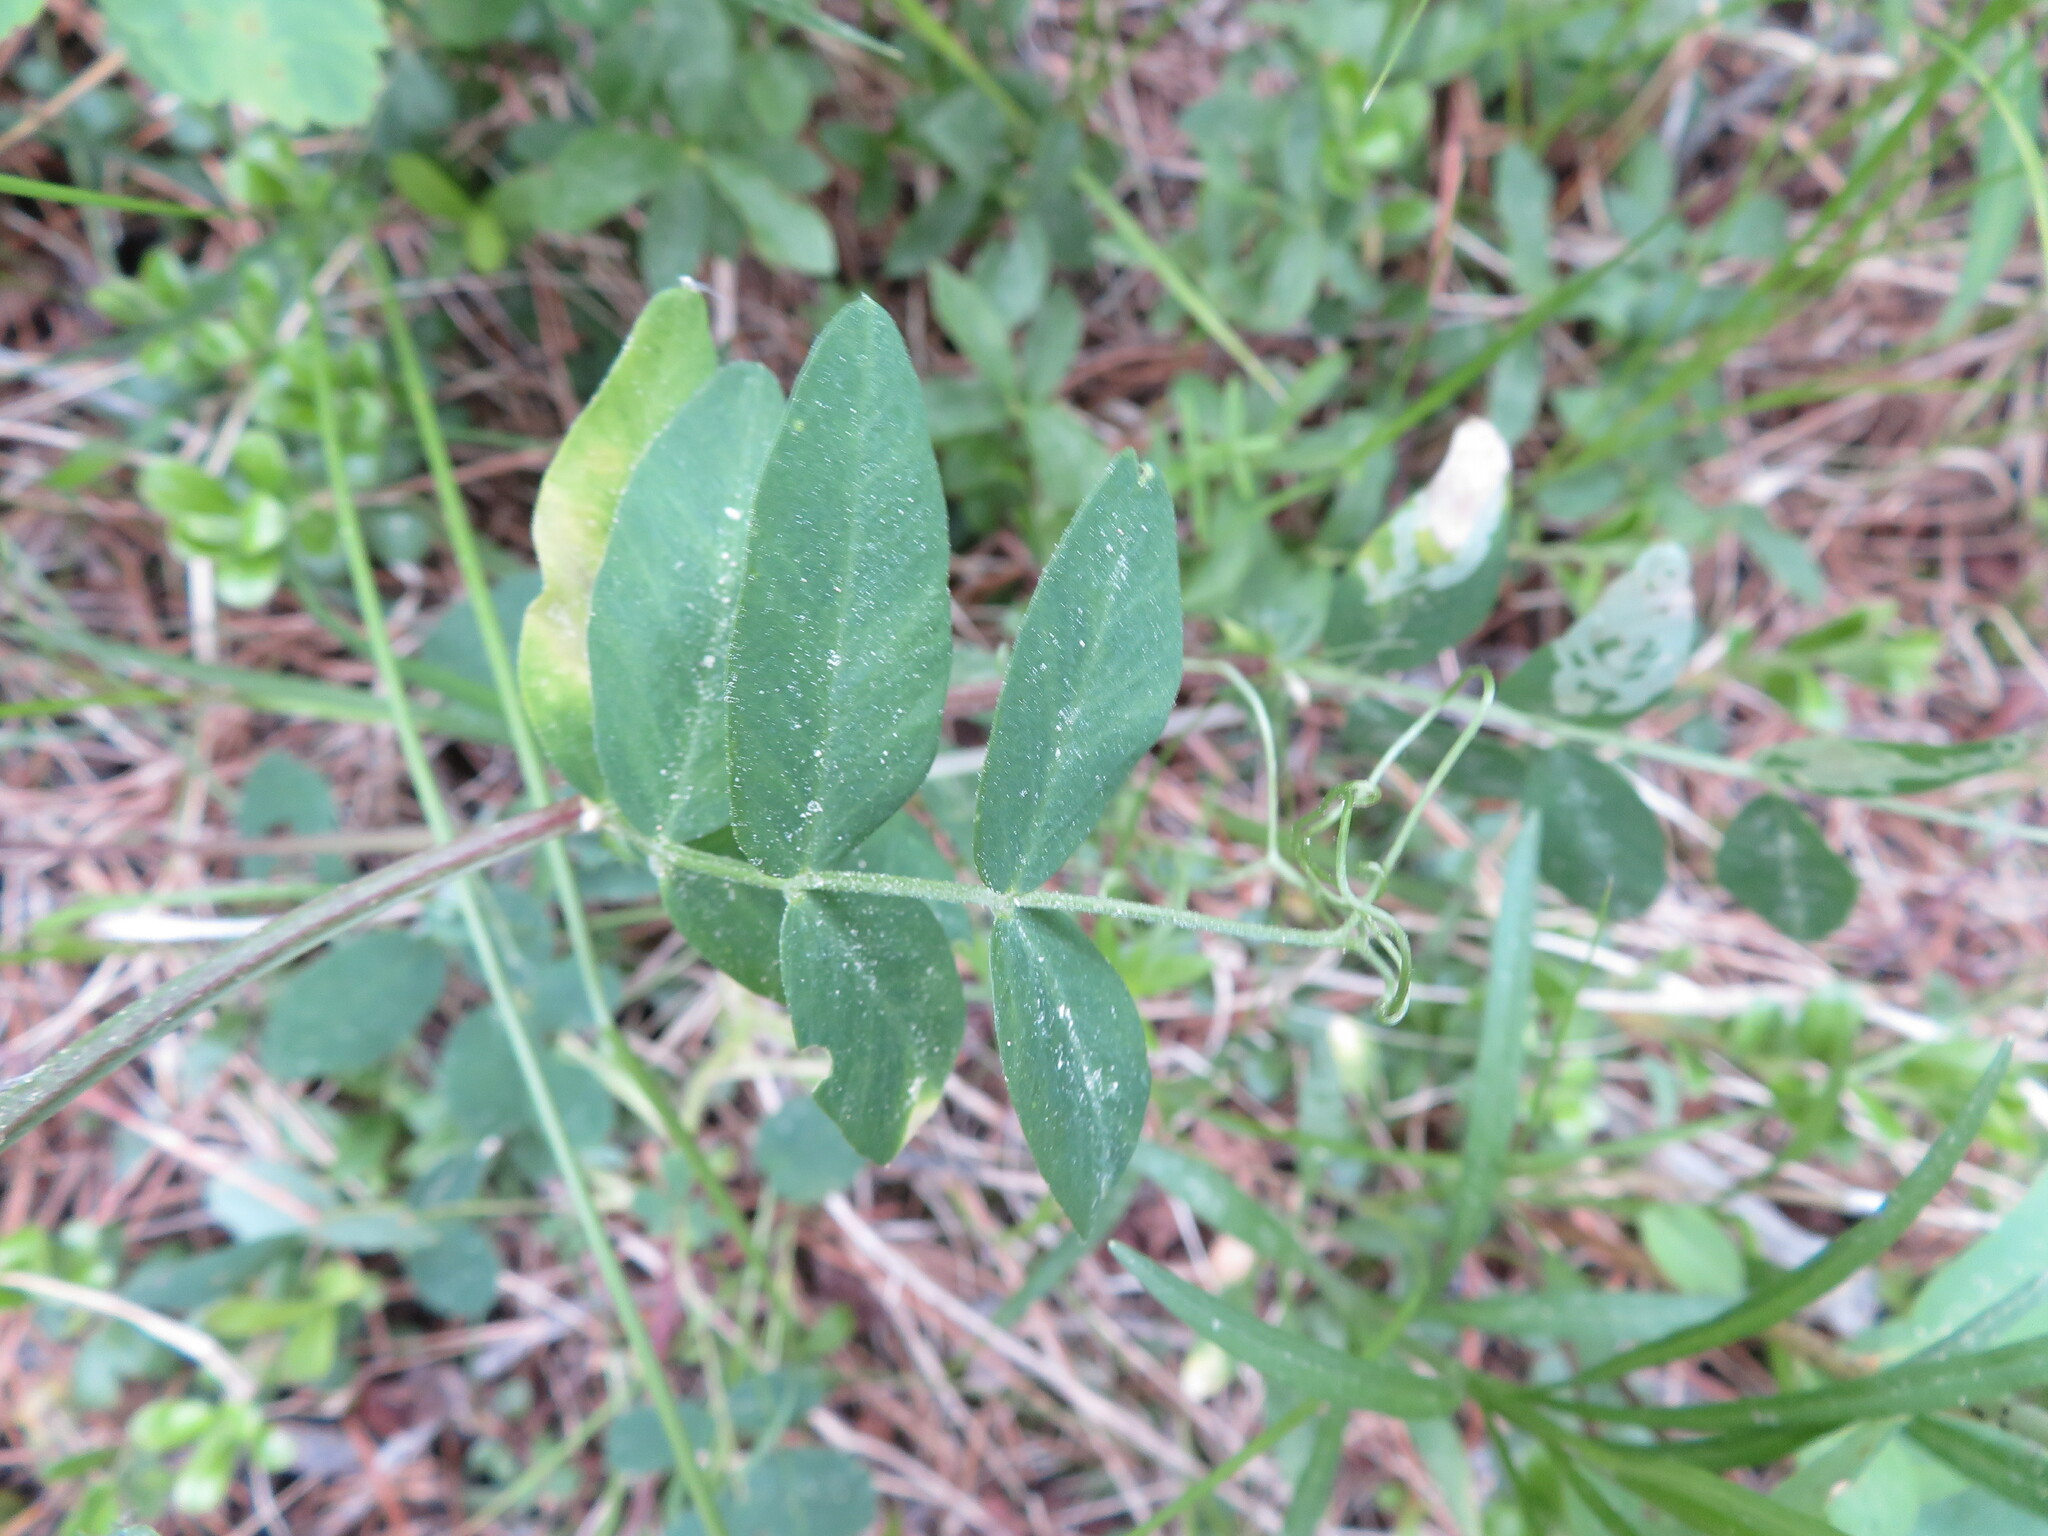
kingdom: Plantae
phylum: Tracheophyta
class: Magnoliopsida
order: Fabales
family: Fabaceae
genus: Vicia
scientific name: Vicia americana
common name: American vetch
